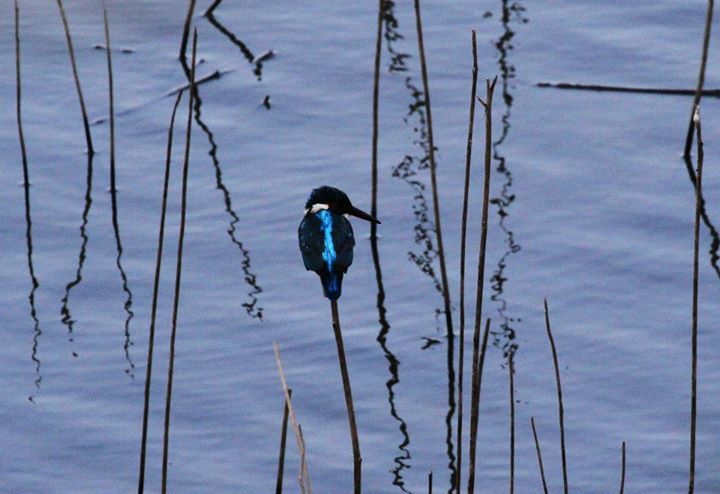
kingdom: Animalia
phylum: Chordata
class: Aves
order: Coraciiformes
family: Alcedinidae
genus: Alcedo
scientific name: Alcedo atthis
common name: Common kingfisher
